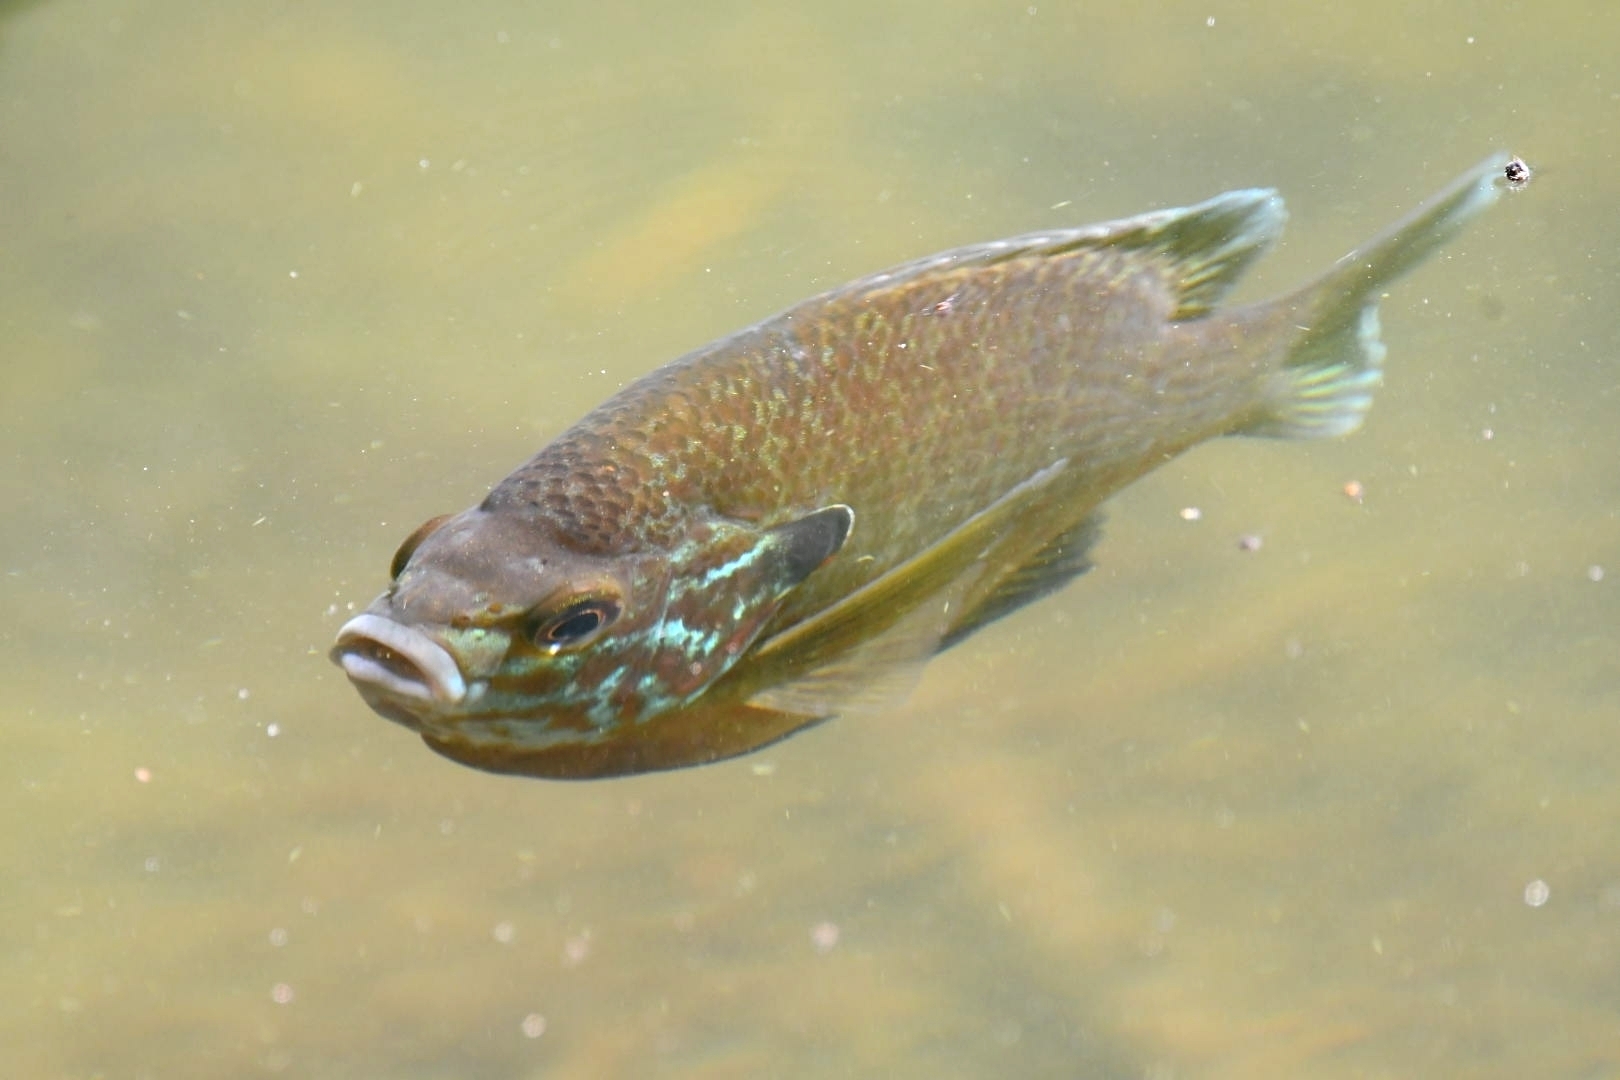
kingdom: Animalia
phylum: Chordata
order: Perciformes
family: Centrarchidae
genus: Lepomis
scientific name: Lepomis
